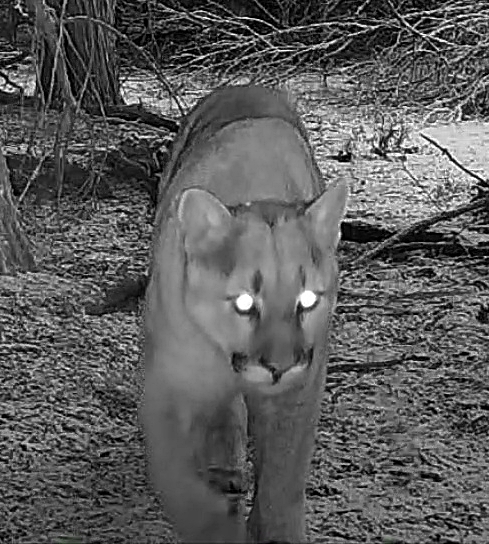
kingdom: Animalia
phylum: Chordata
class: Mammalia
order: Carnivora
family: Felidae
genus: Puma
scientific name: Puma concolor
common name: Puma
